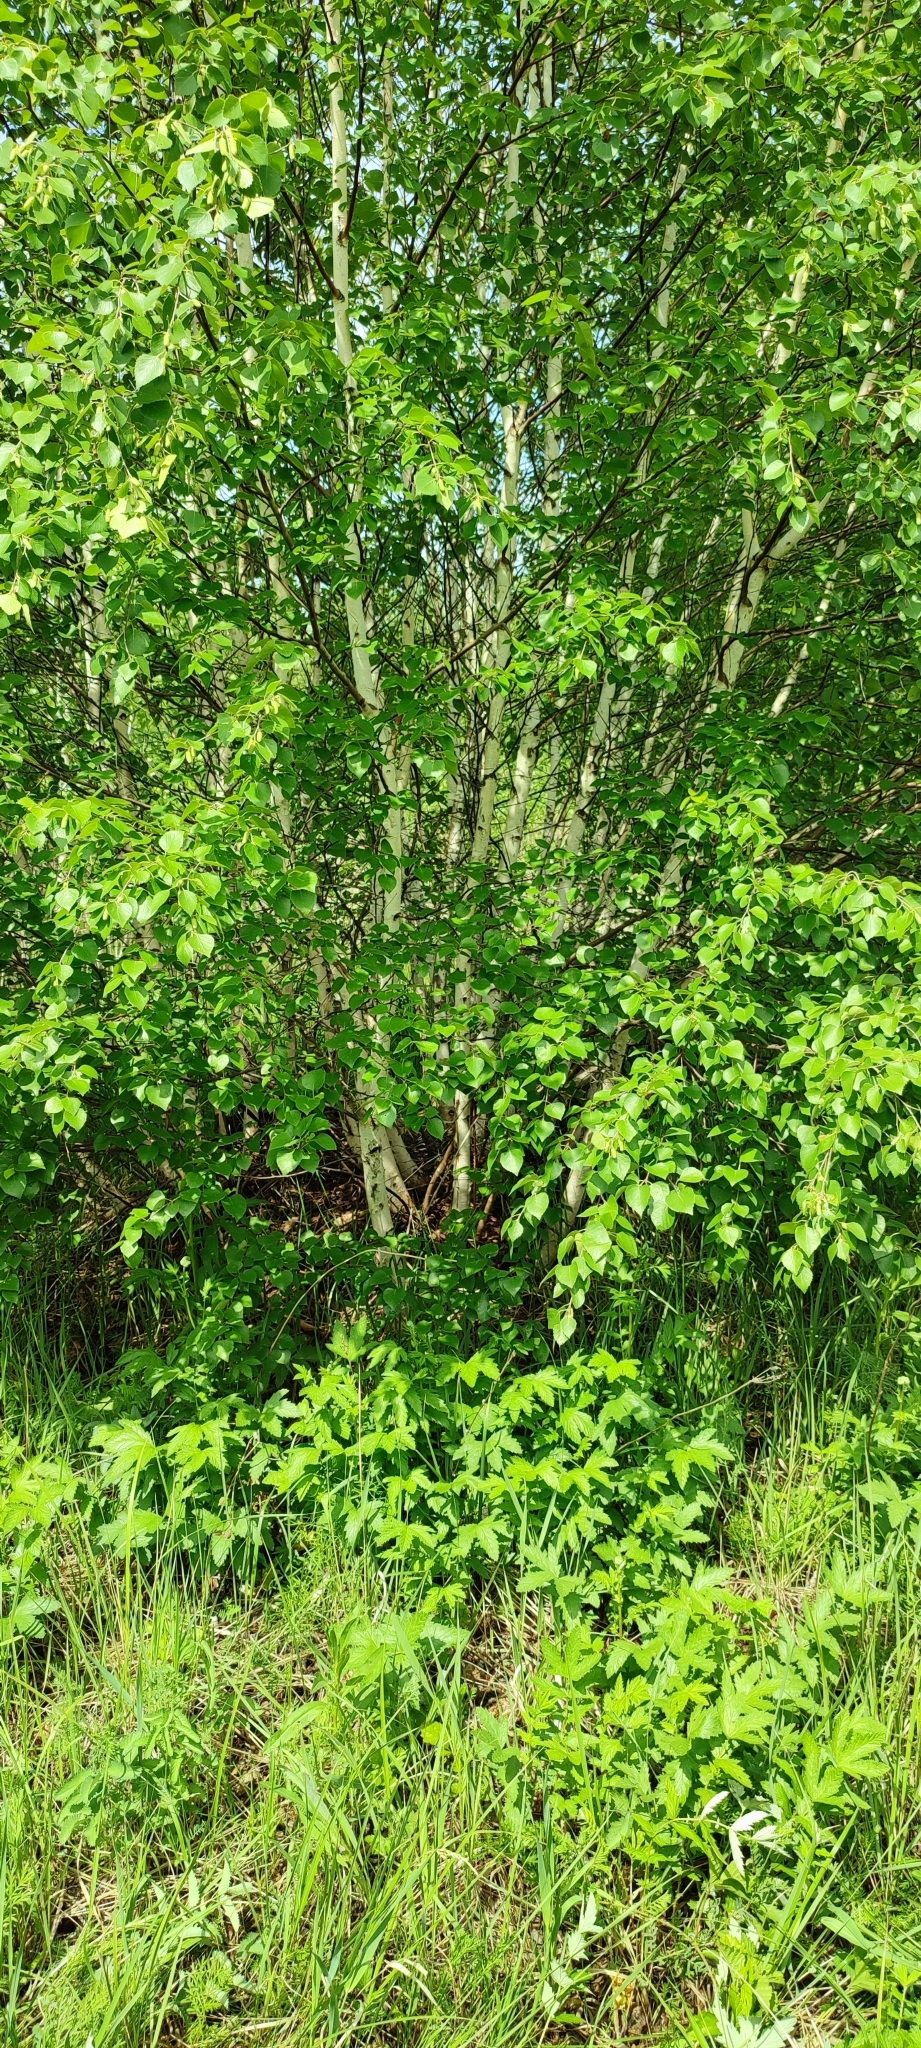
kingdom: Plantae
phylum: Tracheophyta
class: Magnoliopsida
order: Fagales
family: Betulaceae
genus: Betula
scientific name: Betula pubescens
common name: Downy birch
